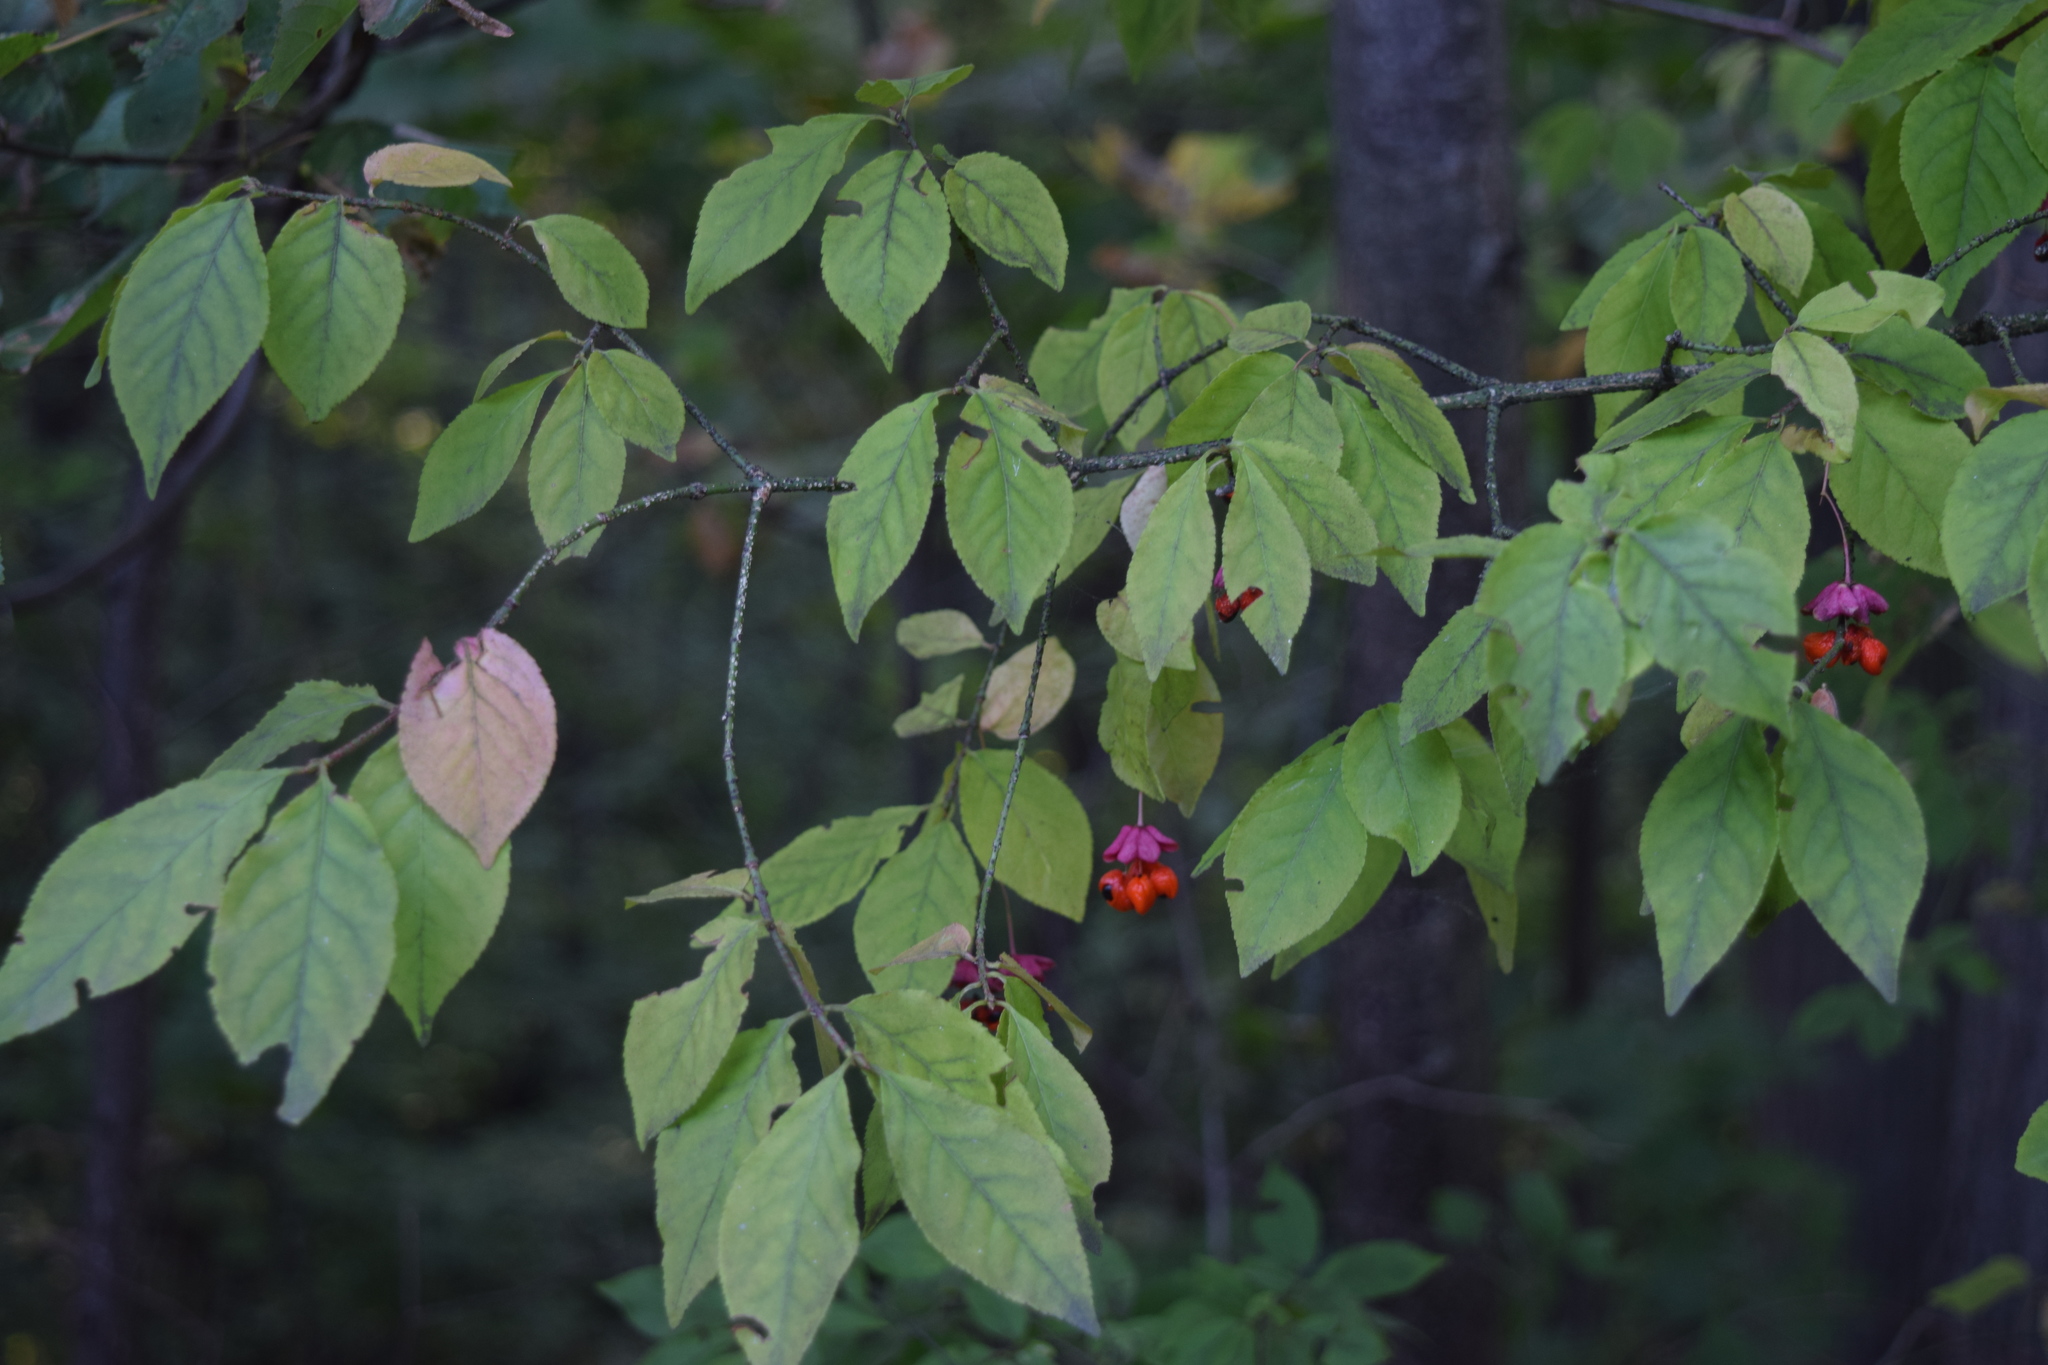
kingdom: Plantae
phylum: Tracheophyta
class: Magnoliopsida
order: Celastrales
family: Celastraceae
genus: Euonymus
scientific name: Euonymus verrucosus
